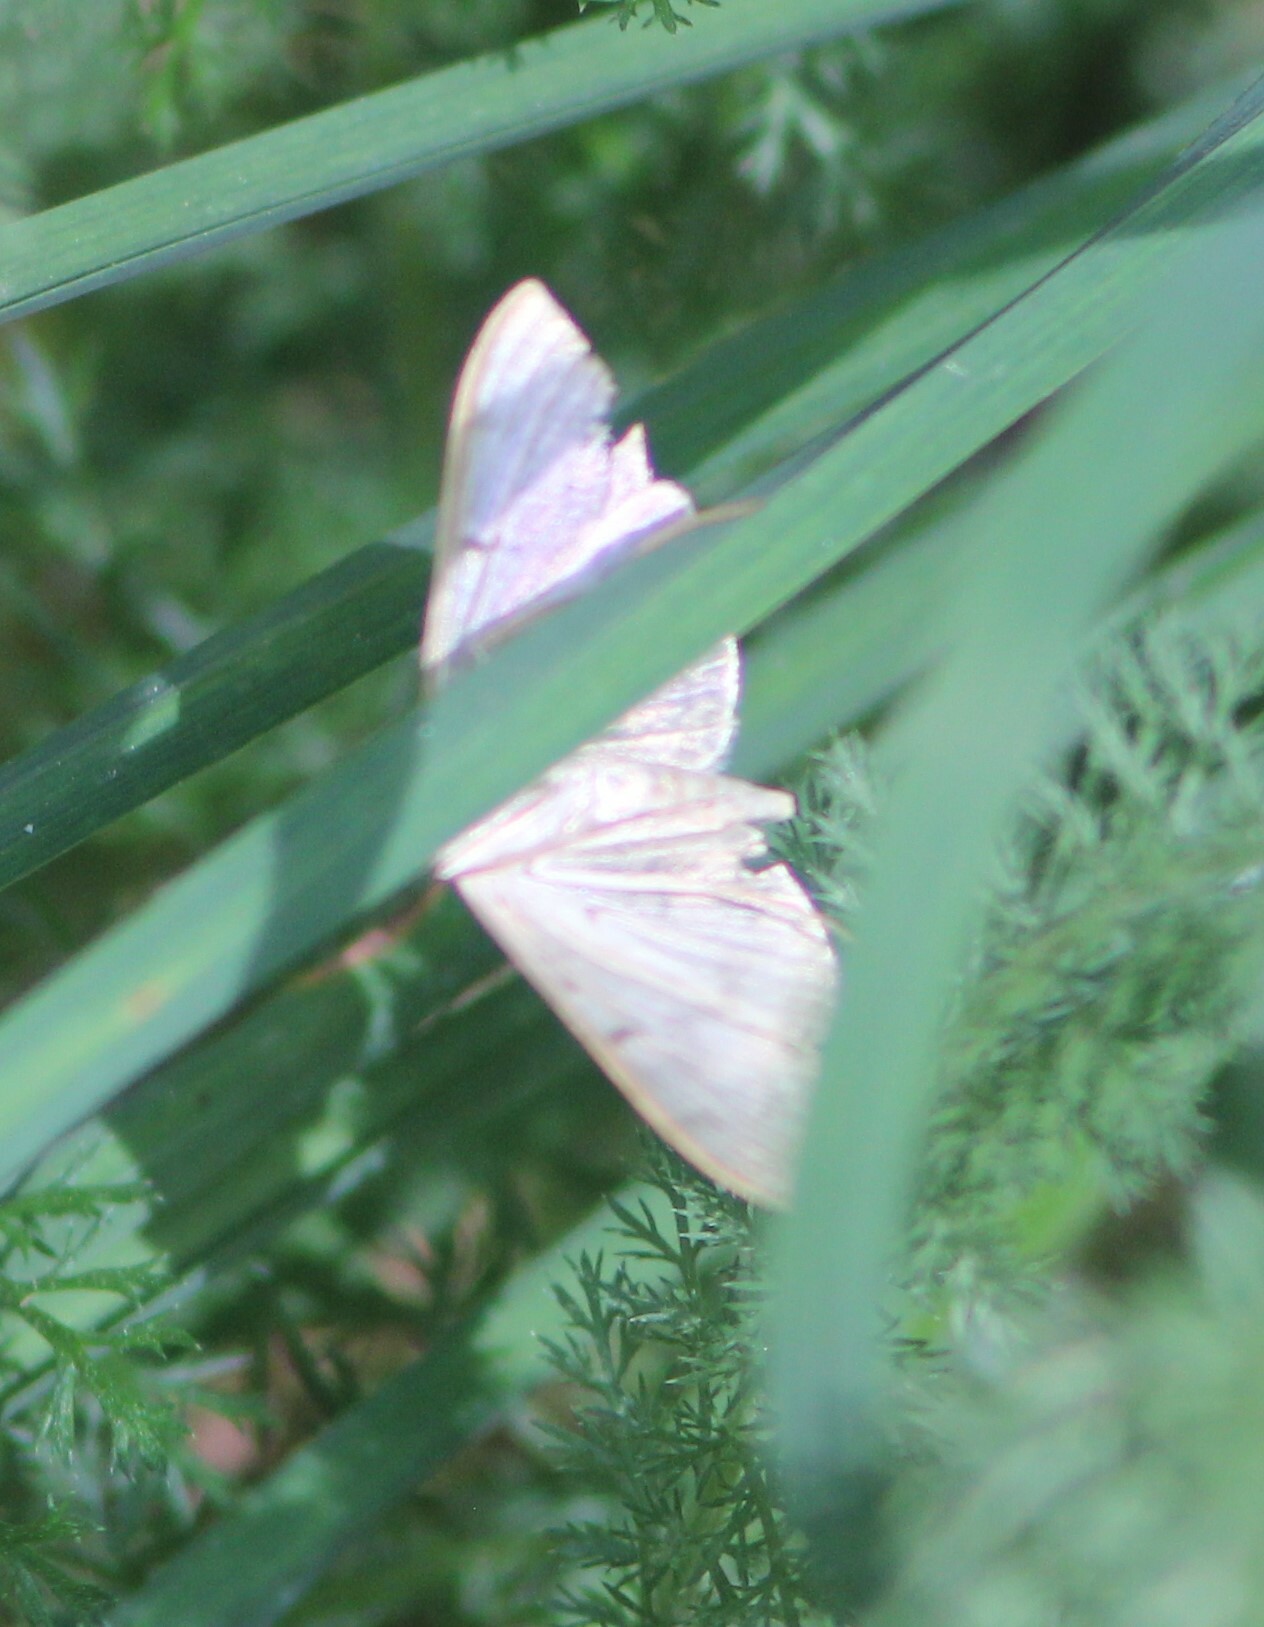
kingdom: Animalia
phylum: Arthropoda
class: Insecta
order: Lepidoptera
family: Crambidae
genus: Patania
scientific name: Patania ruralis
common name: Mother of pearl
